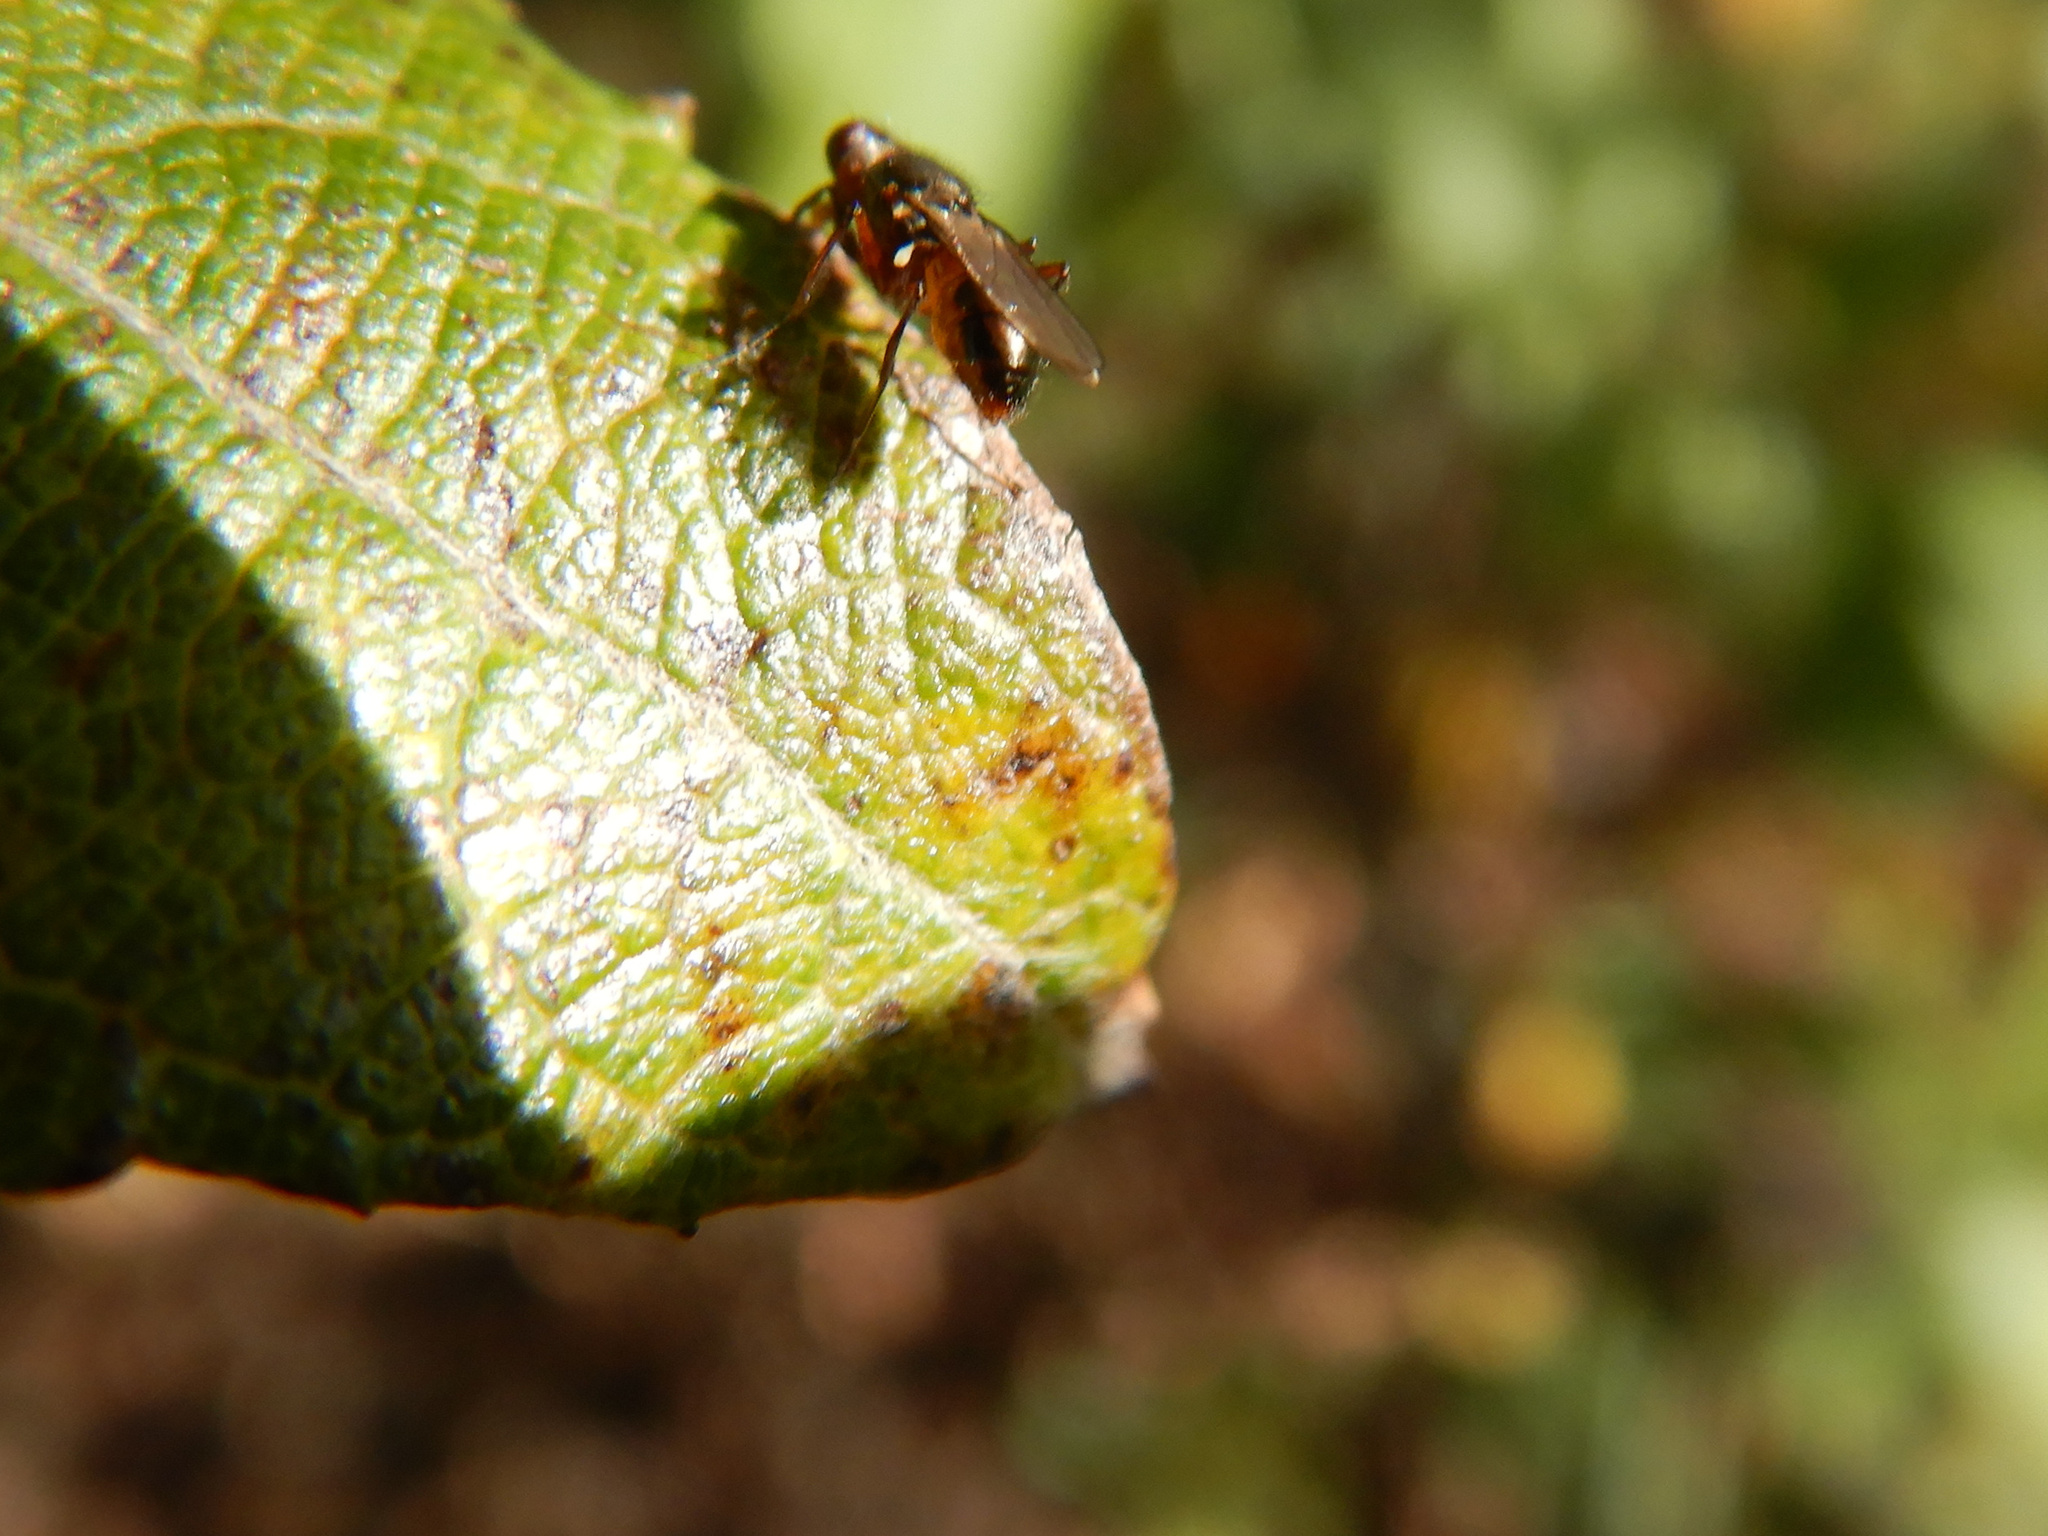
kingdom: Animalia
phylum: Arthropoda
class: Insecta
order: Diptera
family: Sepsidae
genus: Lasionemopoda
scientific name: Lasionemopoda hirsuta
